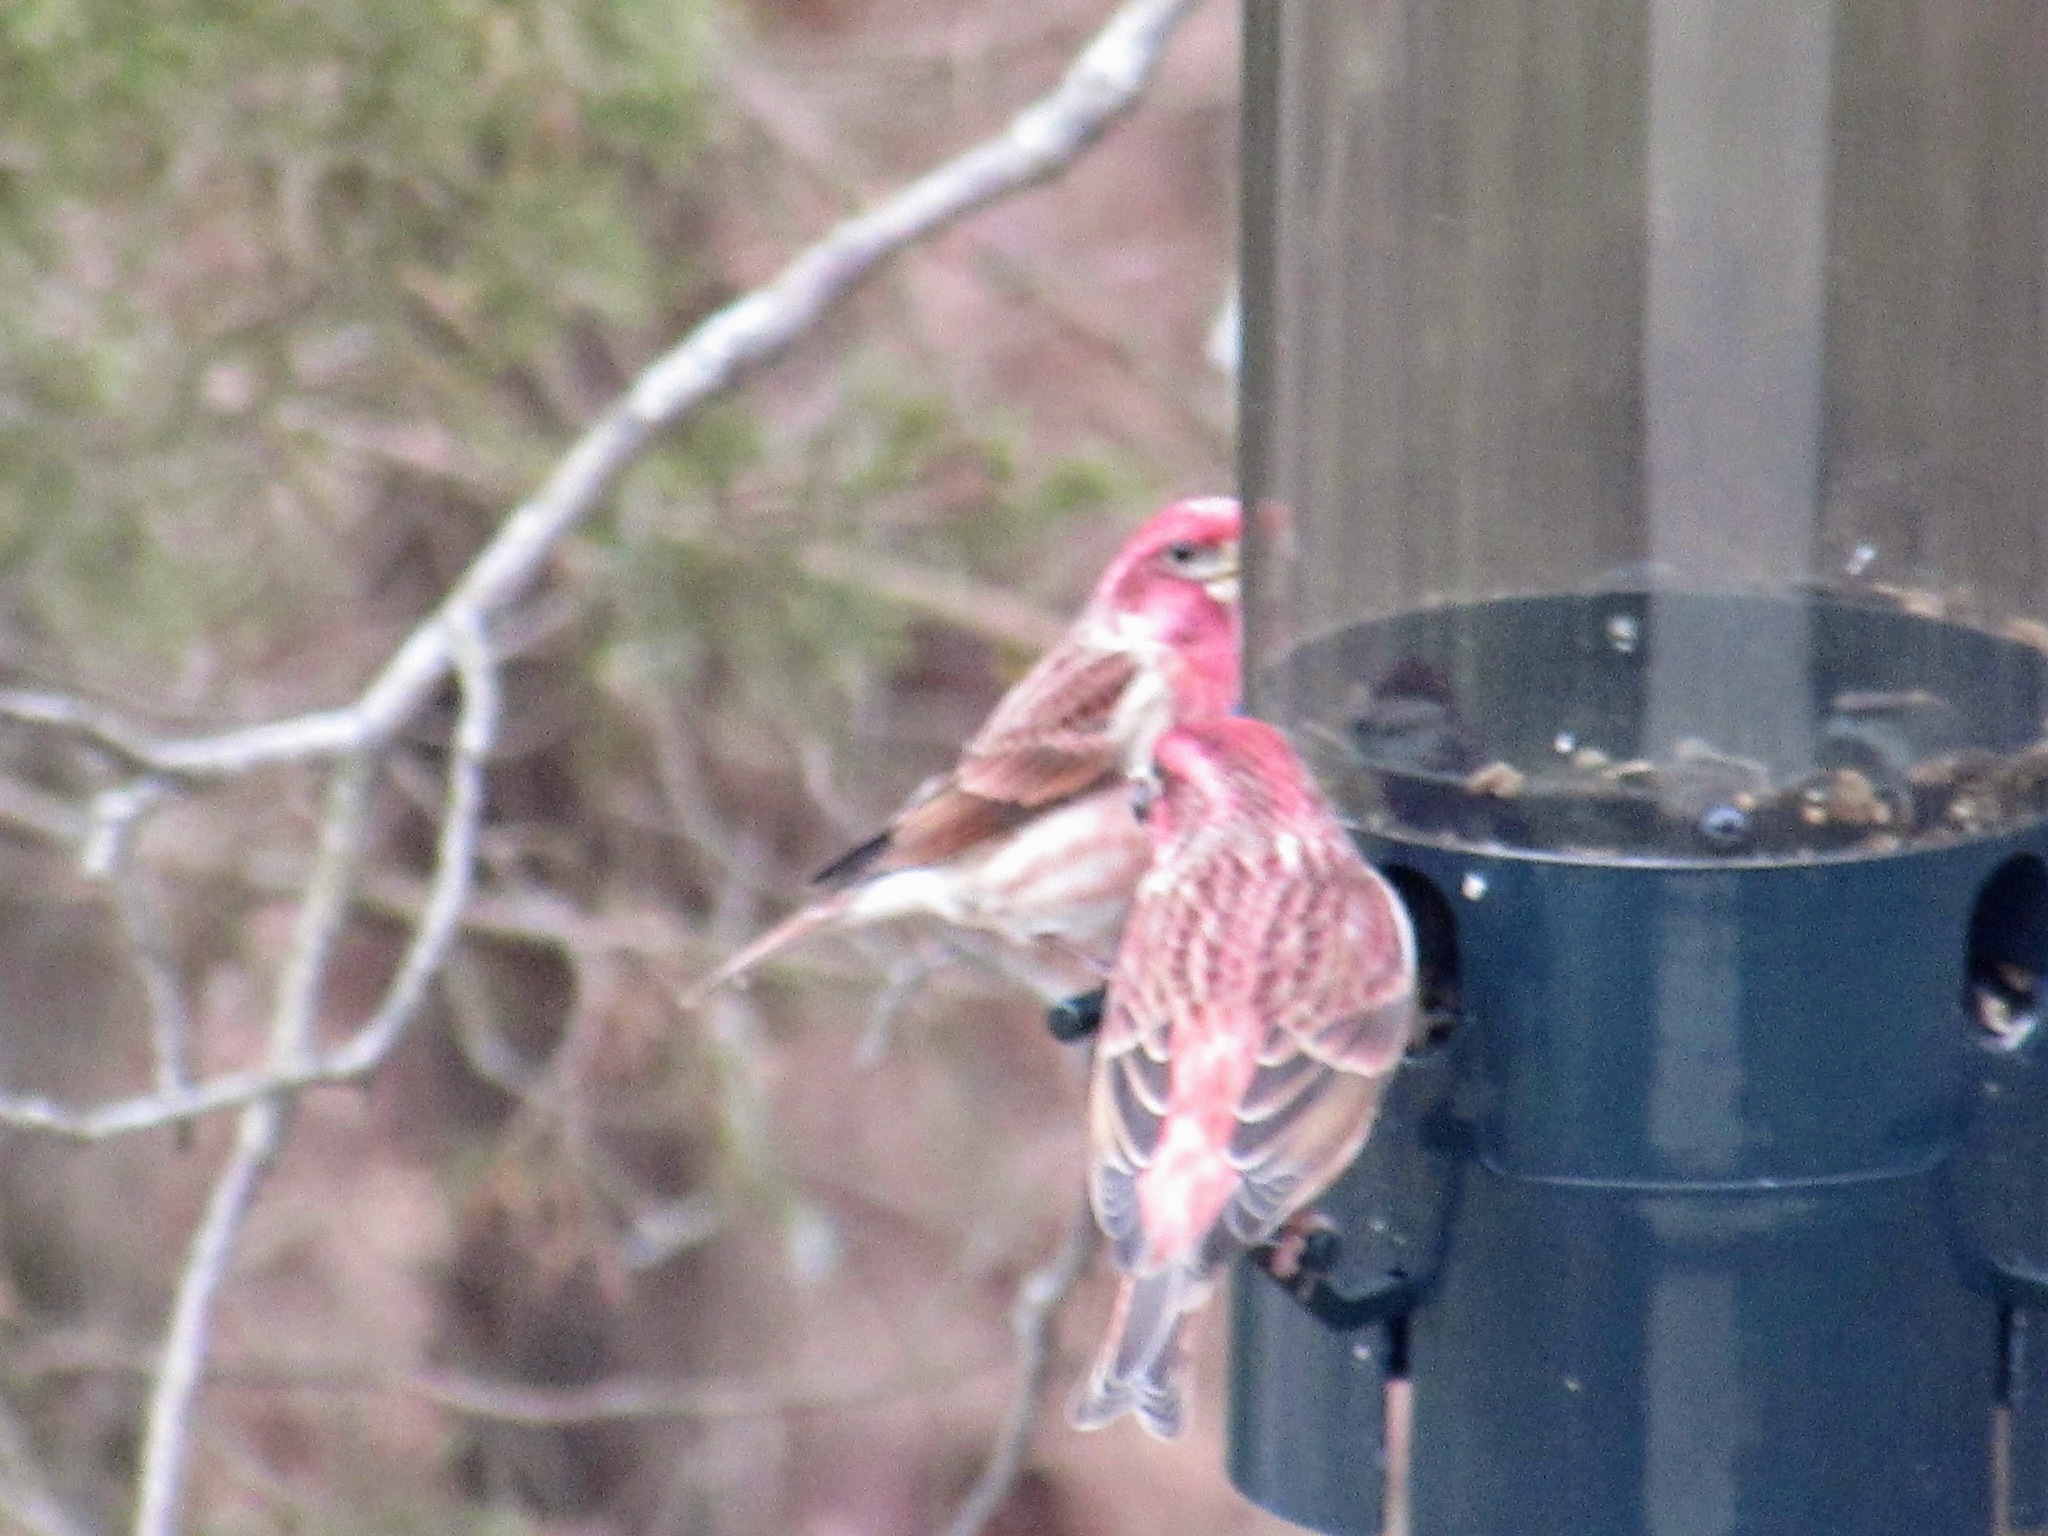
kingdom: Animalia
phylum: Chordata
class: Aves
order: Passeriformes
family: Fringillidae
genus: Haemorhous
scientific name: Haemorhous purpureus
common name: Purple finch
